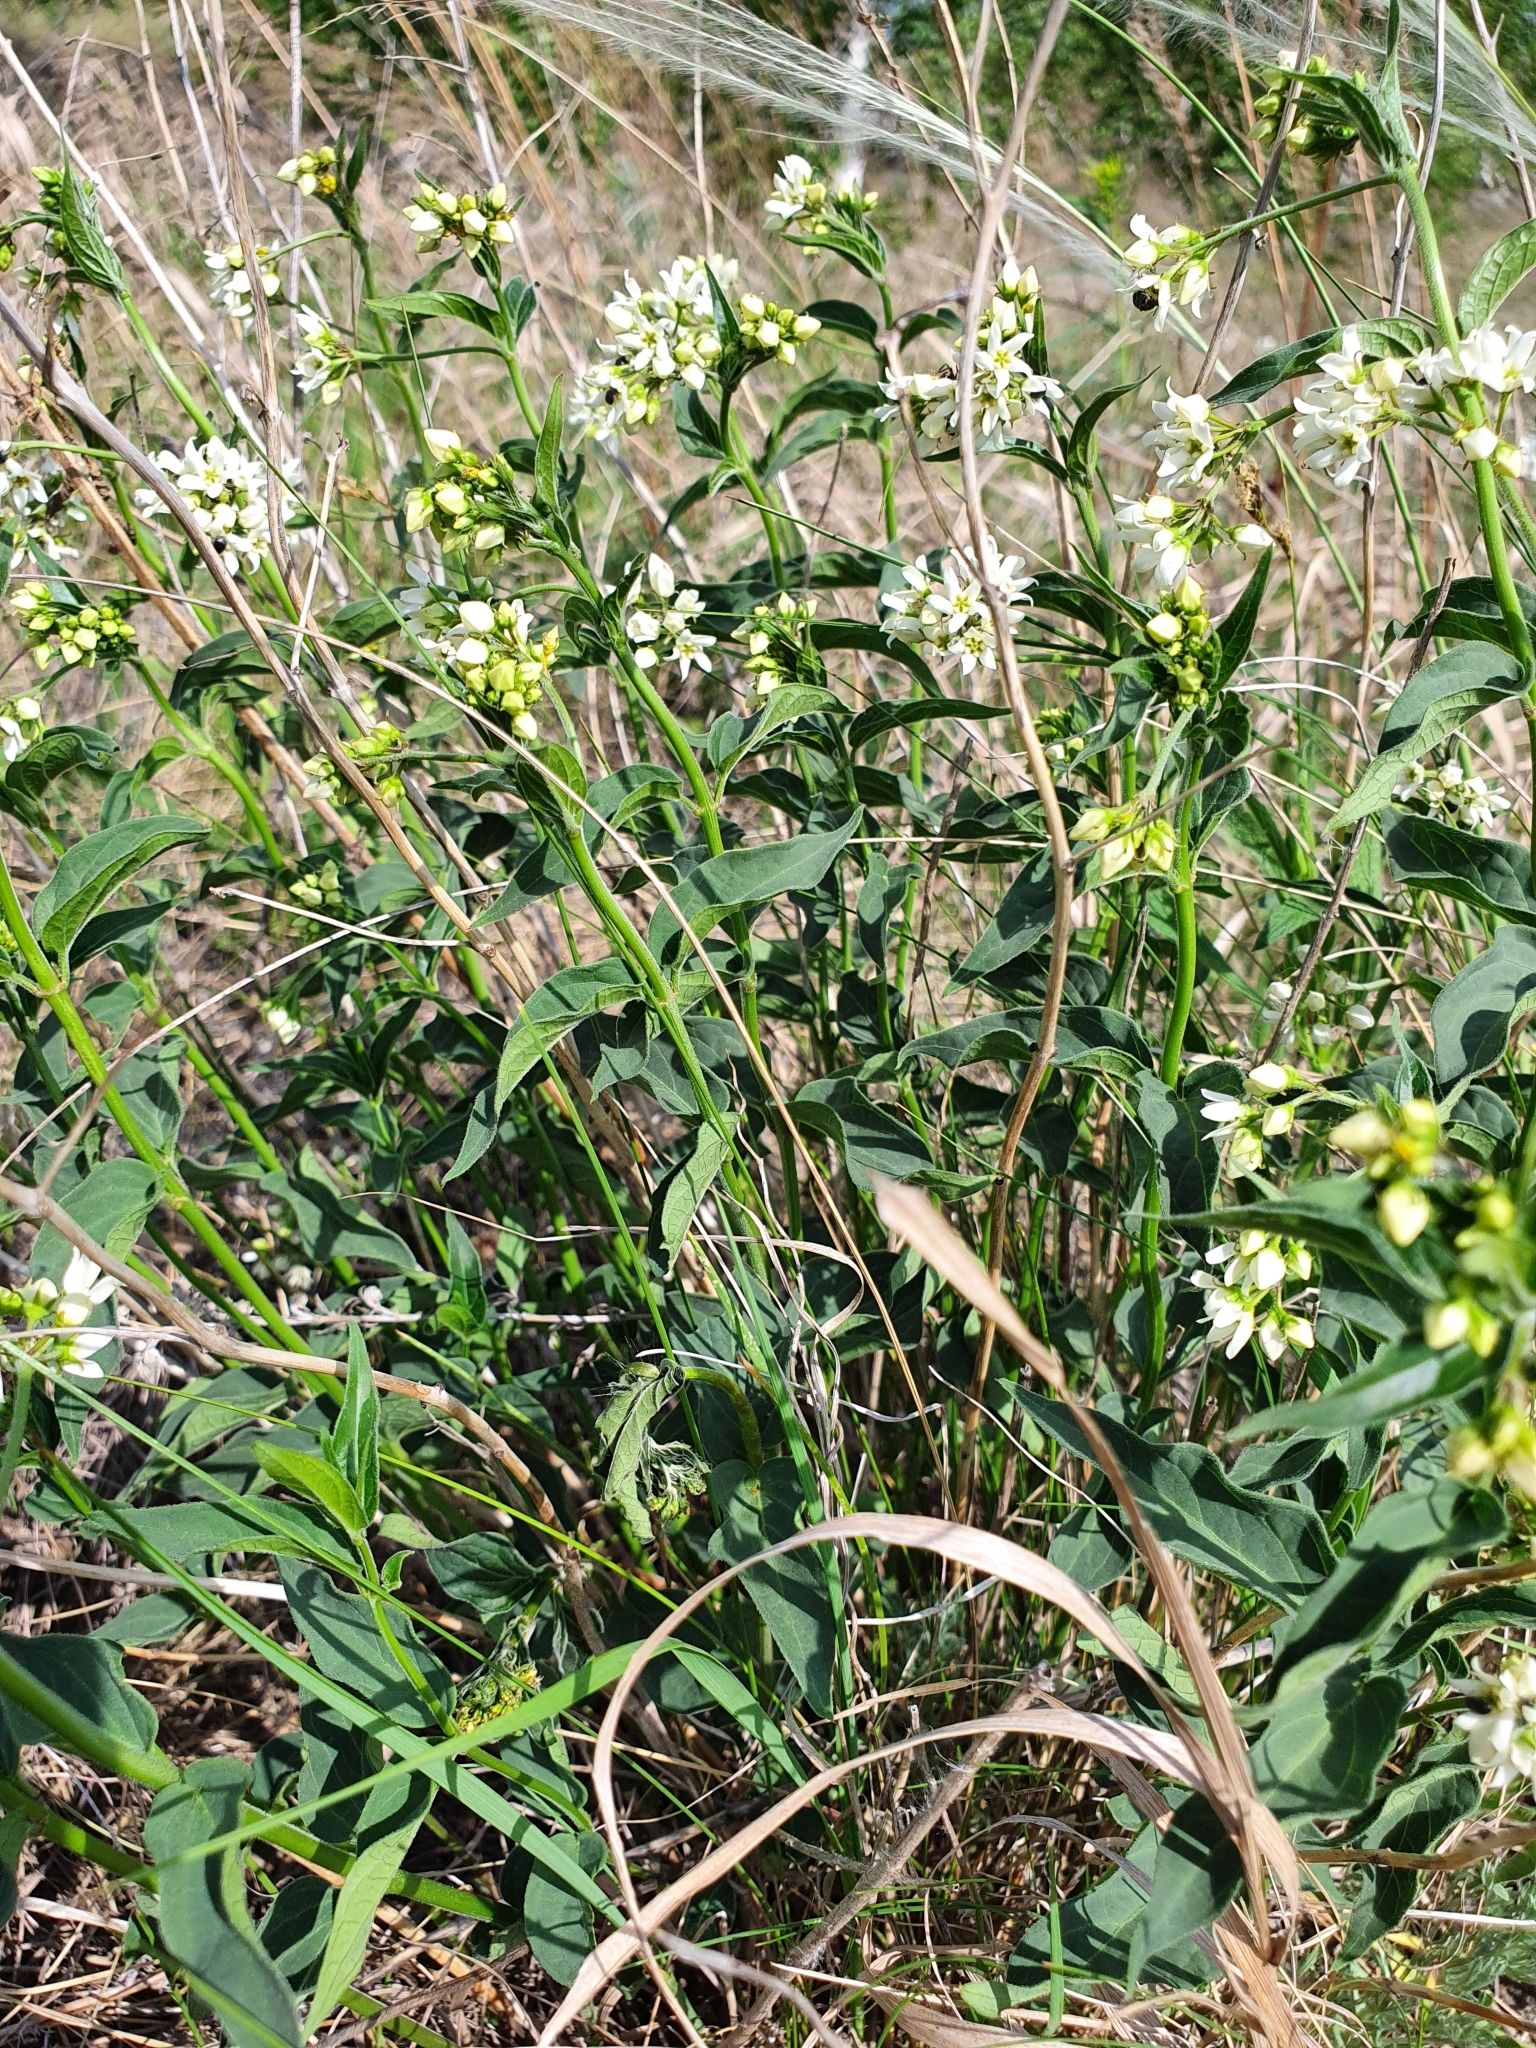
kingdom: Plantae
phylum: Tracheophyta
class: Magnoliopsida
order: Gentianales
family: Apocynaceae
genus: Vincetoxicum
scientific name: Vincetoxicum hirundinaria
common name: White swallowwort
